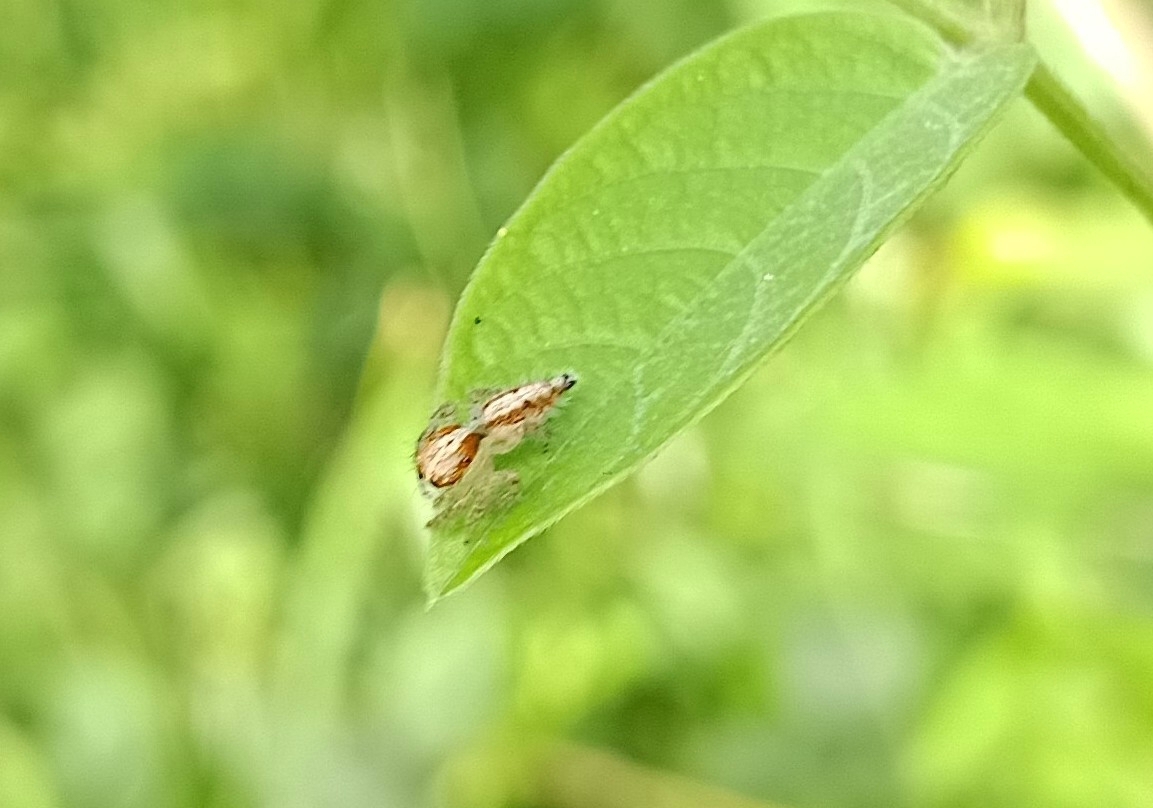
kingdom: Animalia
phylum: Arthropoda
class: Arachnida
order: Araneae
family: Salticidae
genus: Hyllus
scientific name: Hyllus semicupreus
